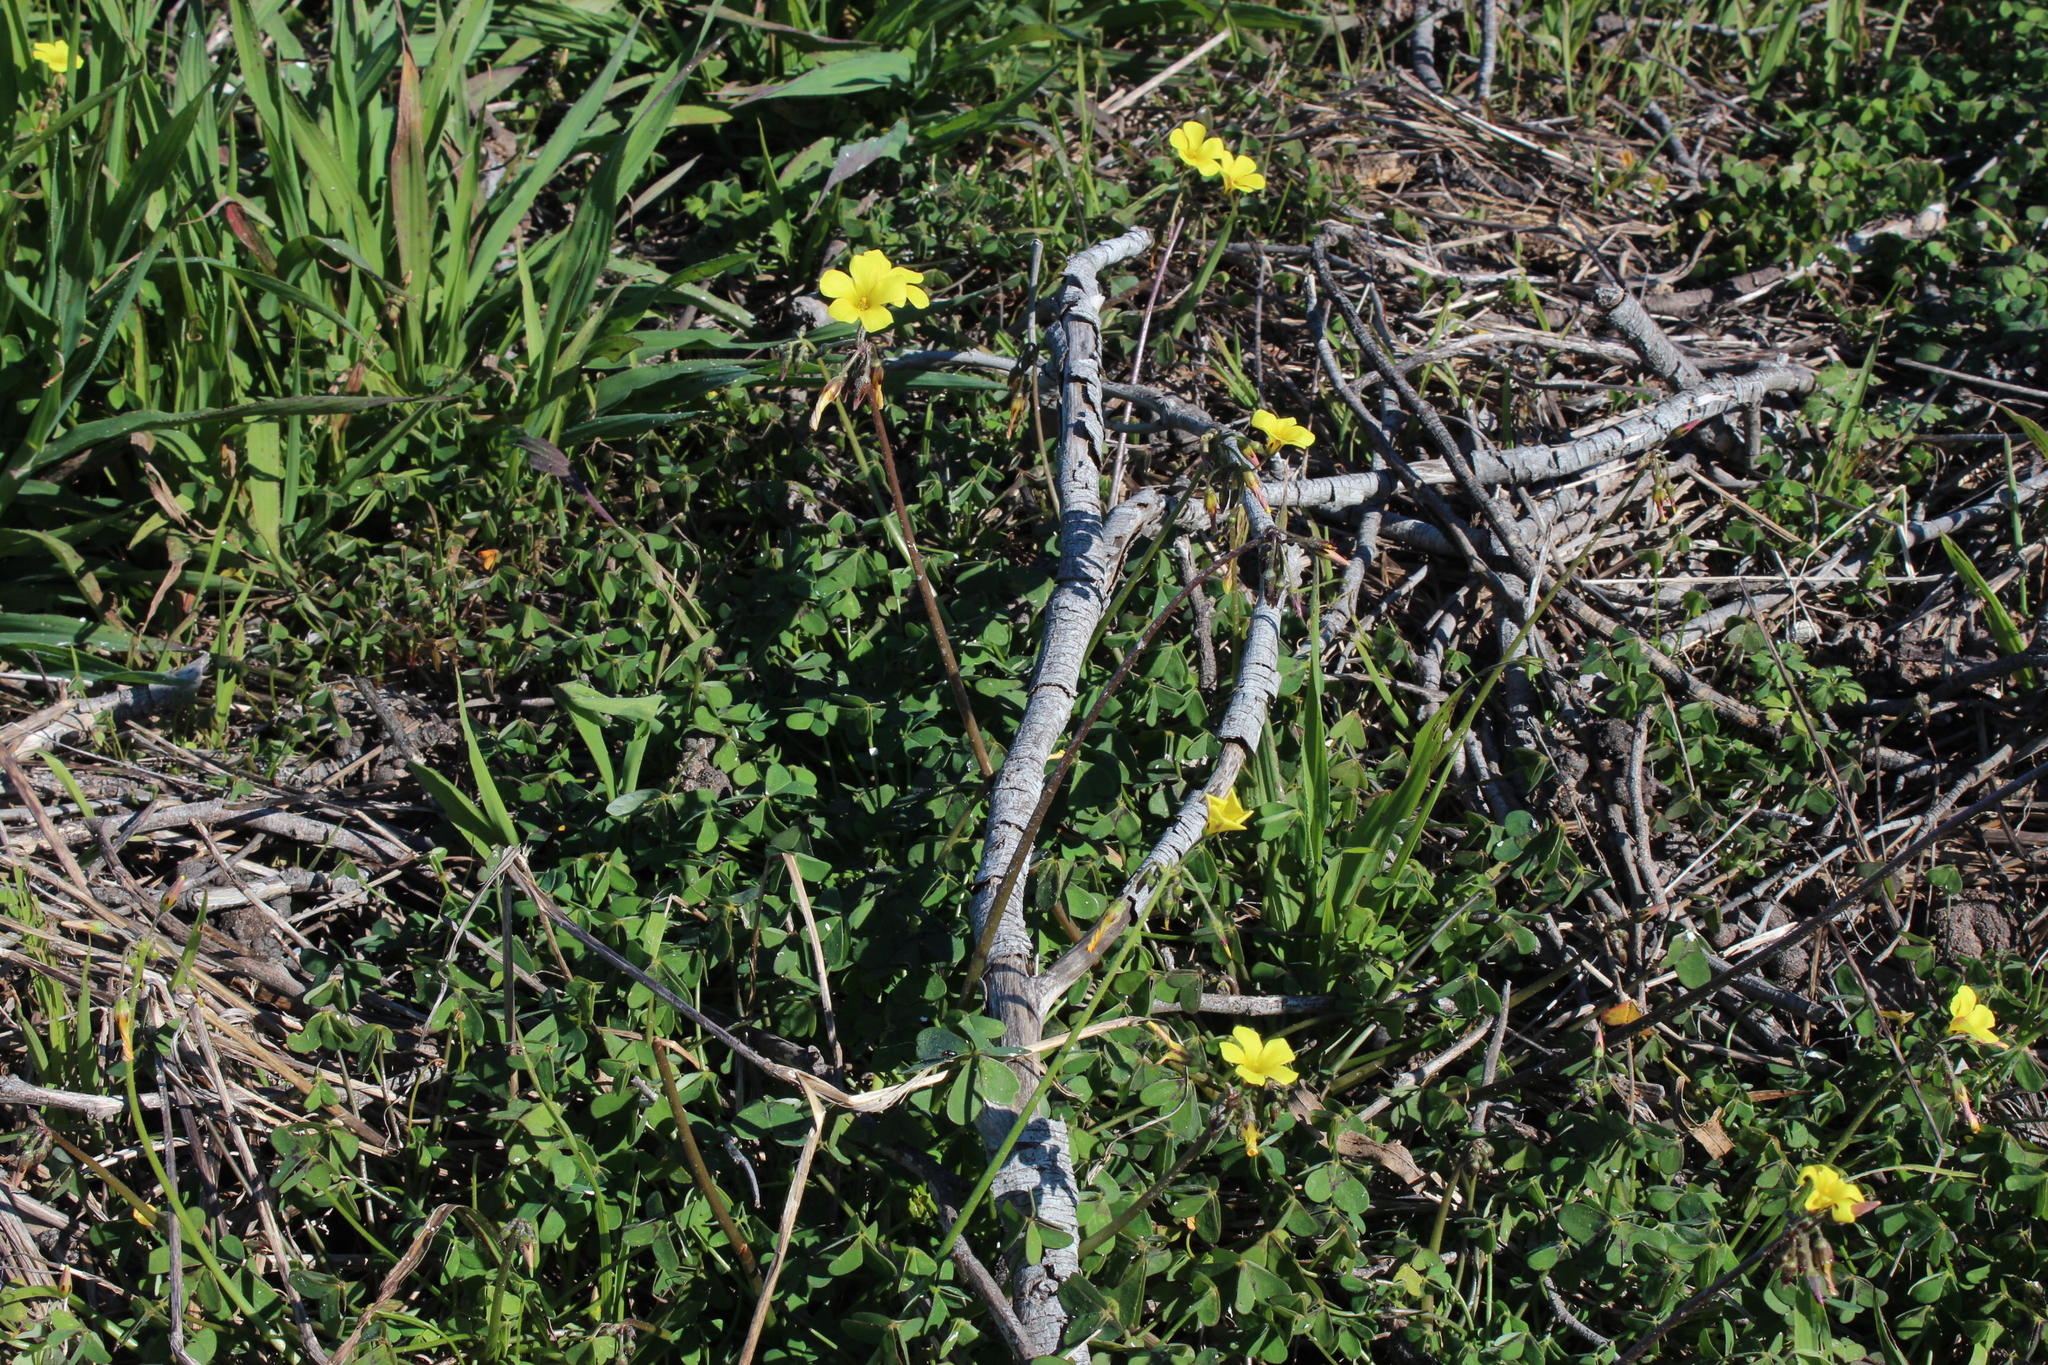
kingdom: Plantae
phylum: Tracheophyta
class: Magnoliopsida
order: Oxalidales
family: Oxalidaceae
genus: Oxalis
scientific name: Oxalis pes-caprae
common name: Bermuda-buttercup
